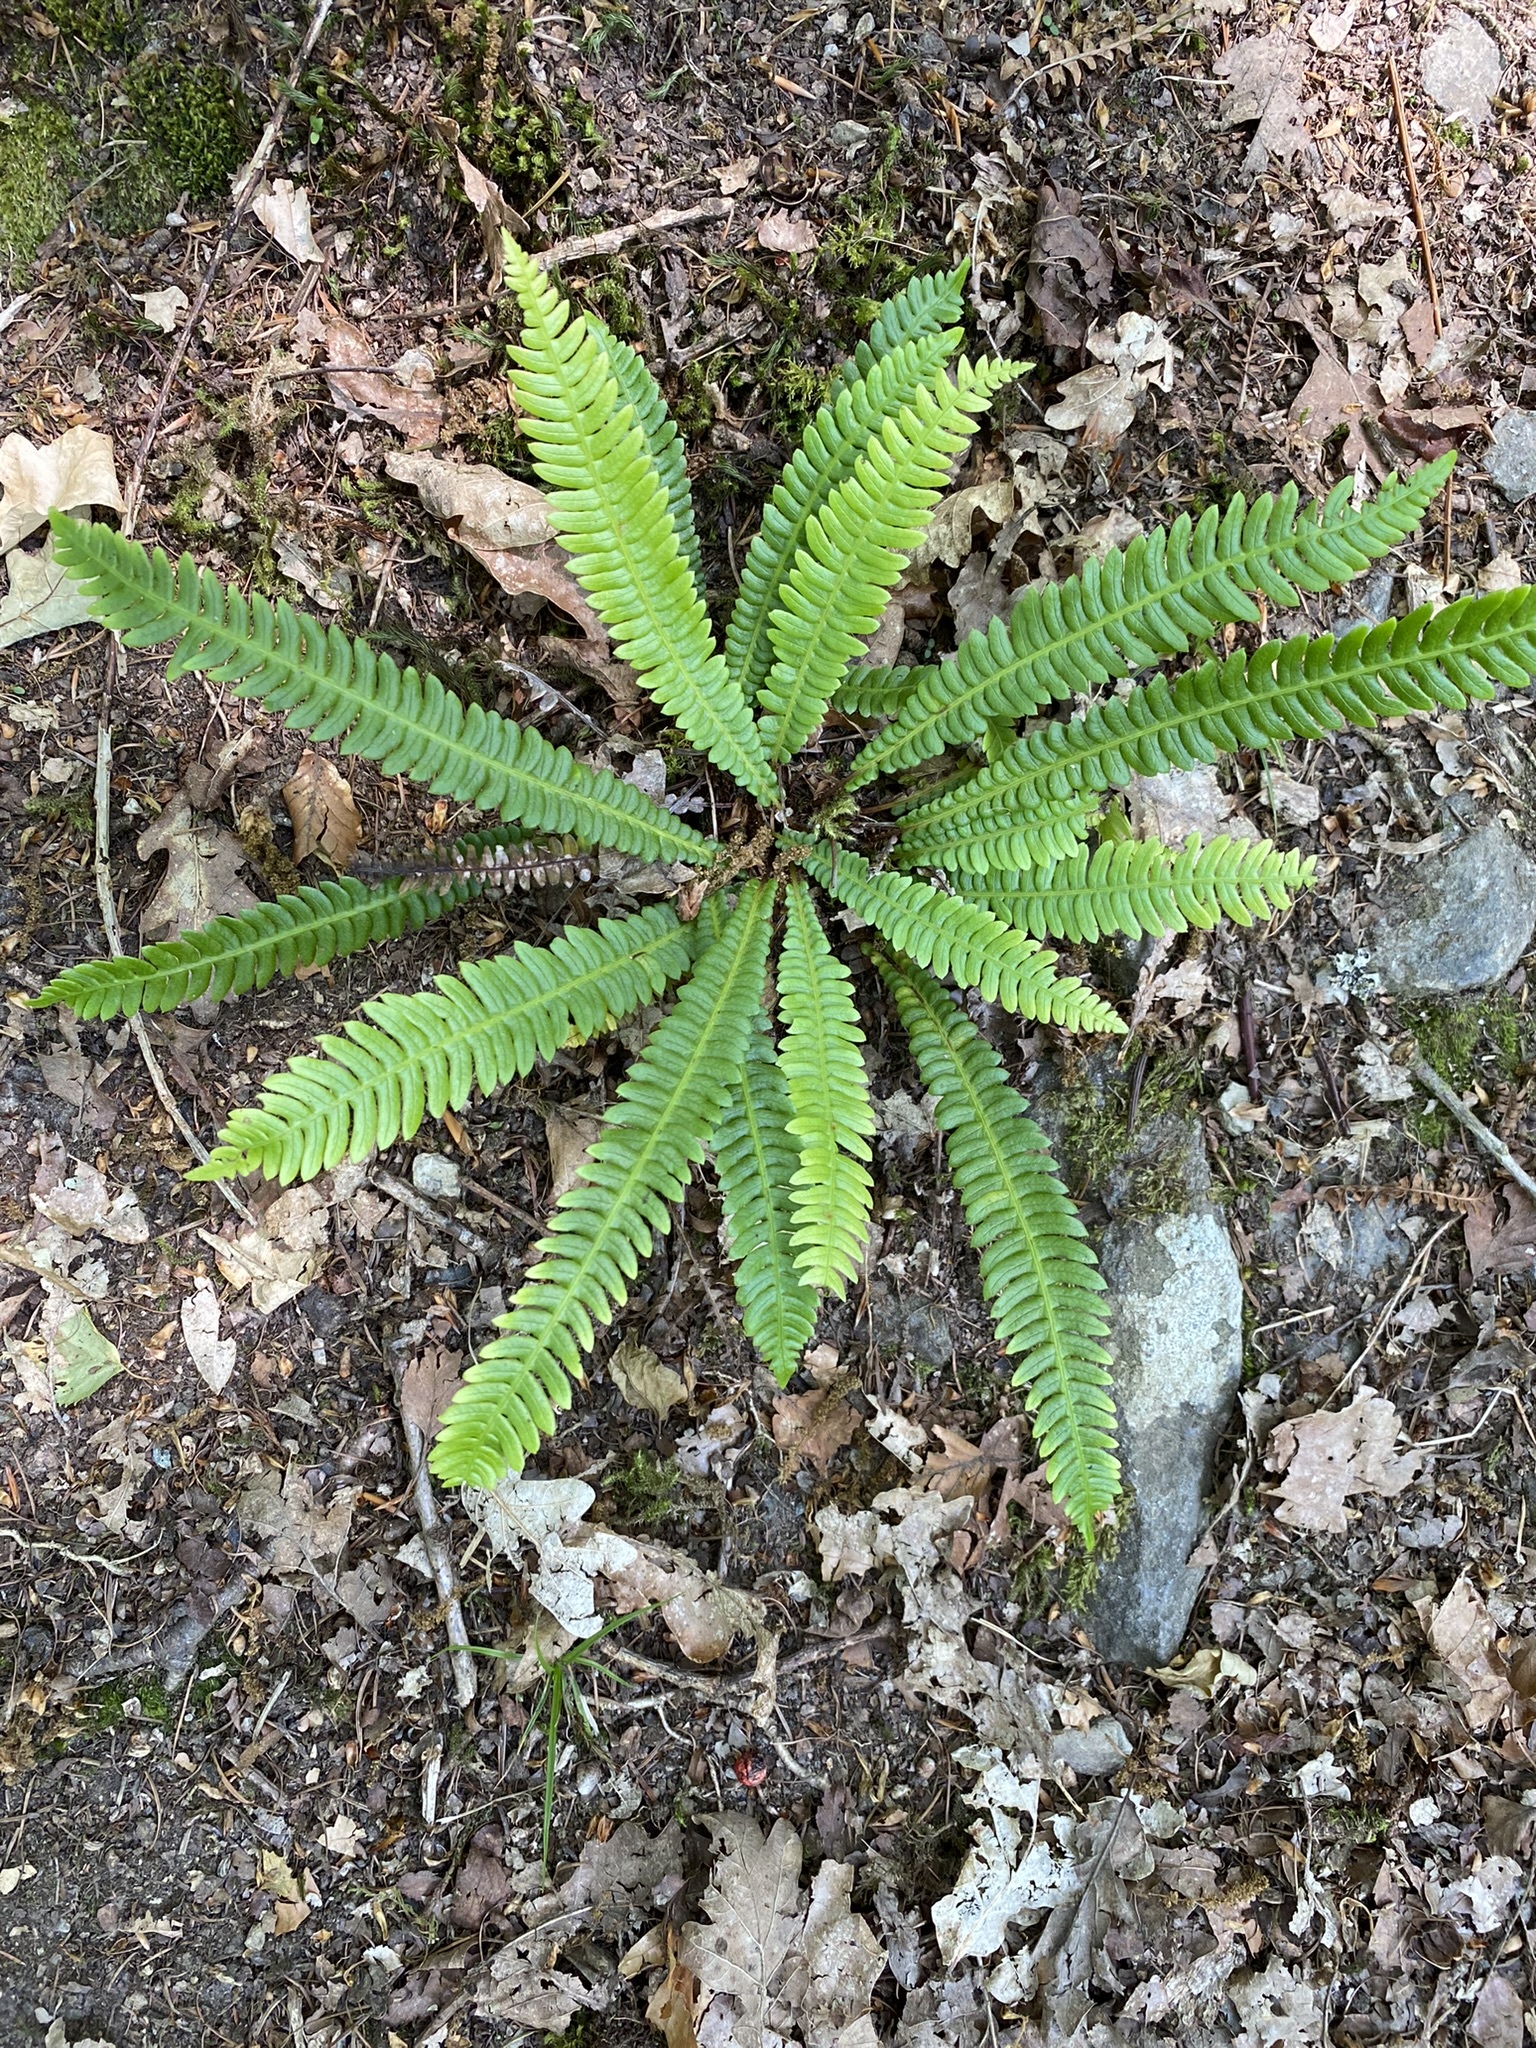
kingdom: Plantae
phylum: Tracheophyta
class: Polypodiopsida
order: Polypodiales
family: Blechnaceae
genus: Struthiopteris
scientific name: Struthiopteris spicant
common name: Deer fern
